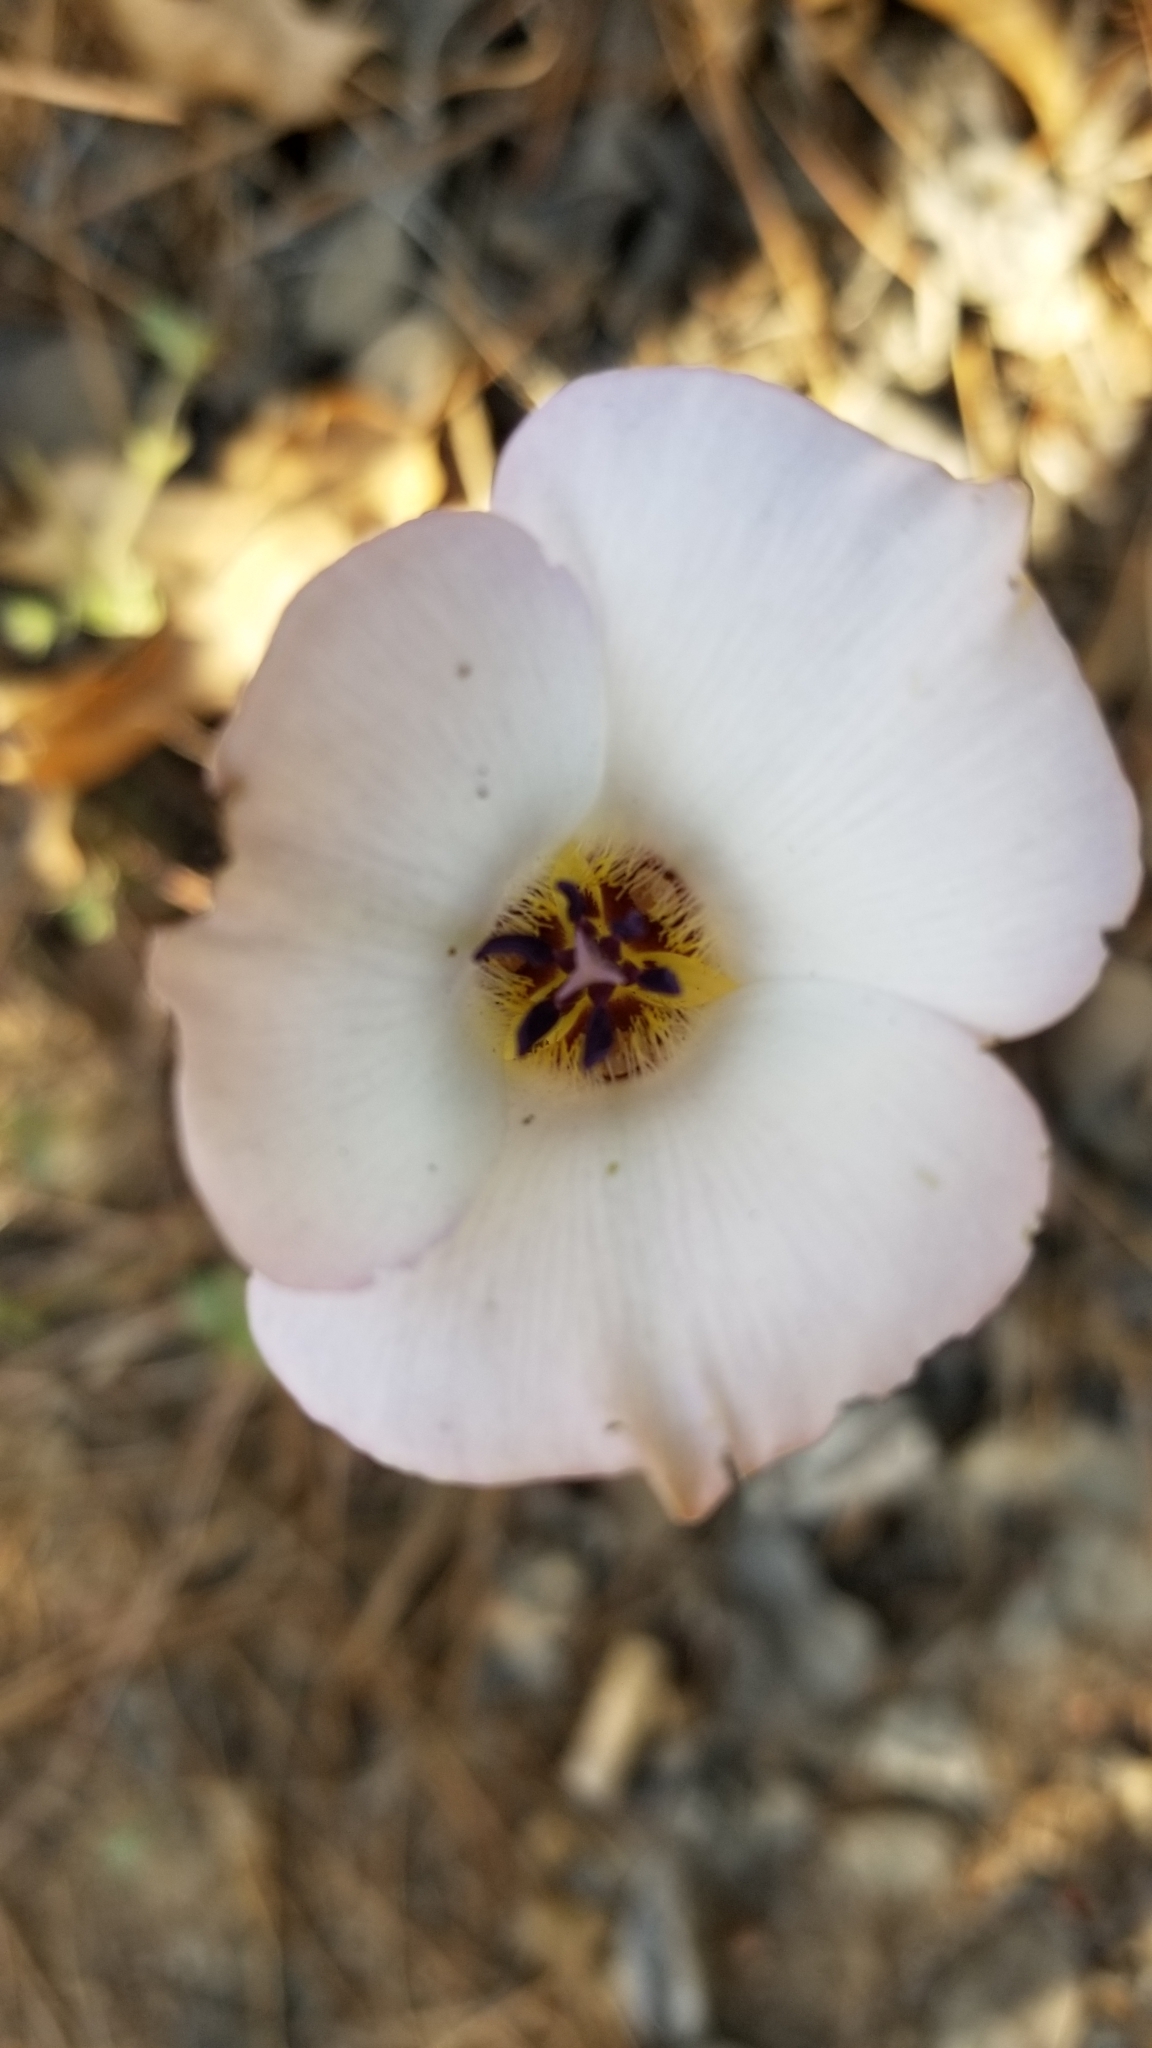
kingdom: Plantae
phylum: Tracheophyta
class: Liliopsida
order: Liliales
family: Liliaceae
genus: Calochortus
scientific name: Calochortus invenustus
